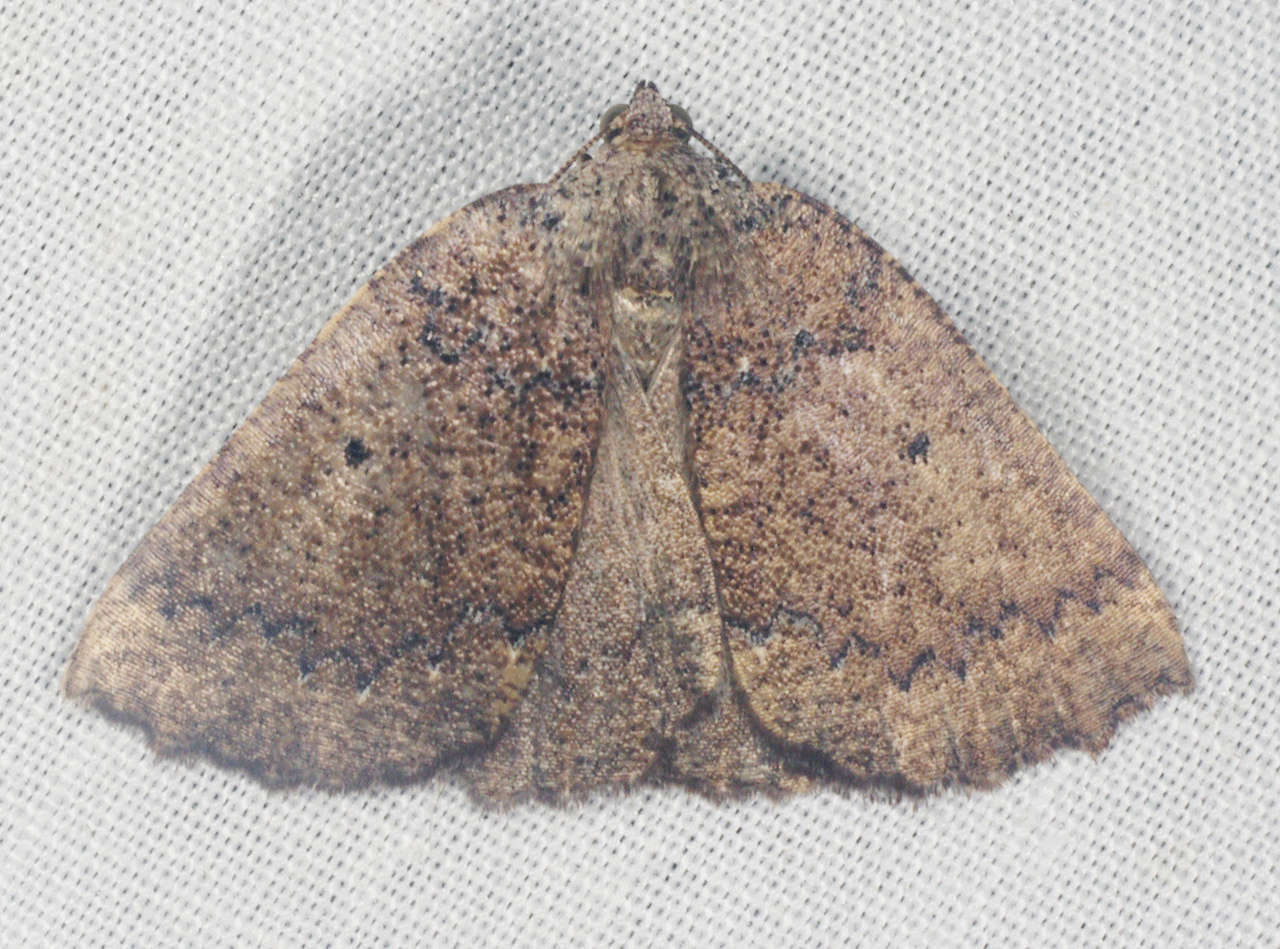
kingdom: Animalia
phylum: Arthropoda
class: Insecta
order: Lepidoptera
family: Geometridae
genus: Furcatrox
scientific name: Furcatrox australis
